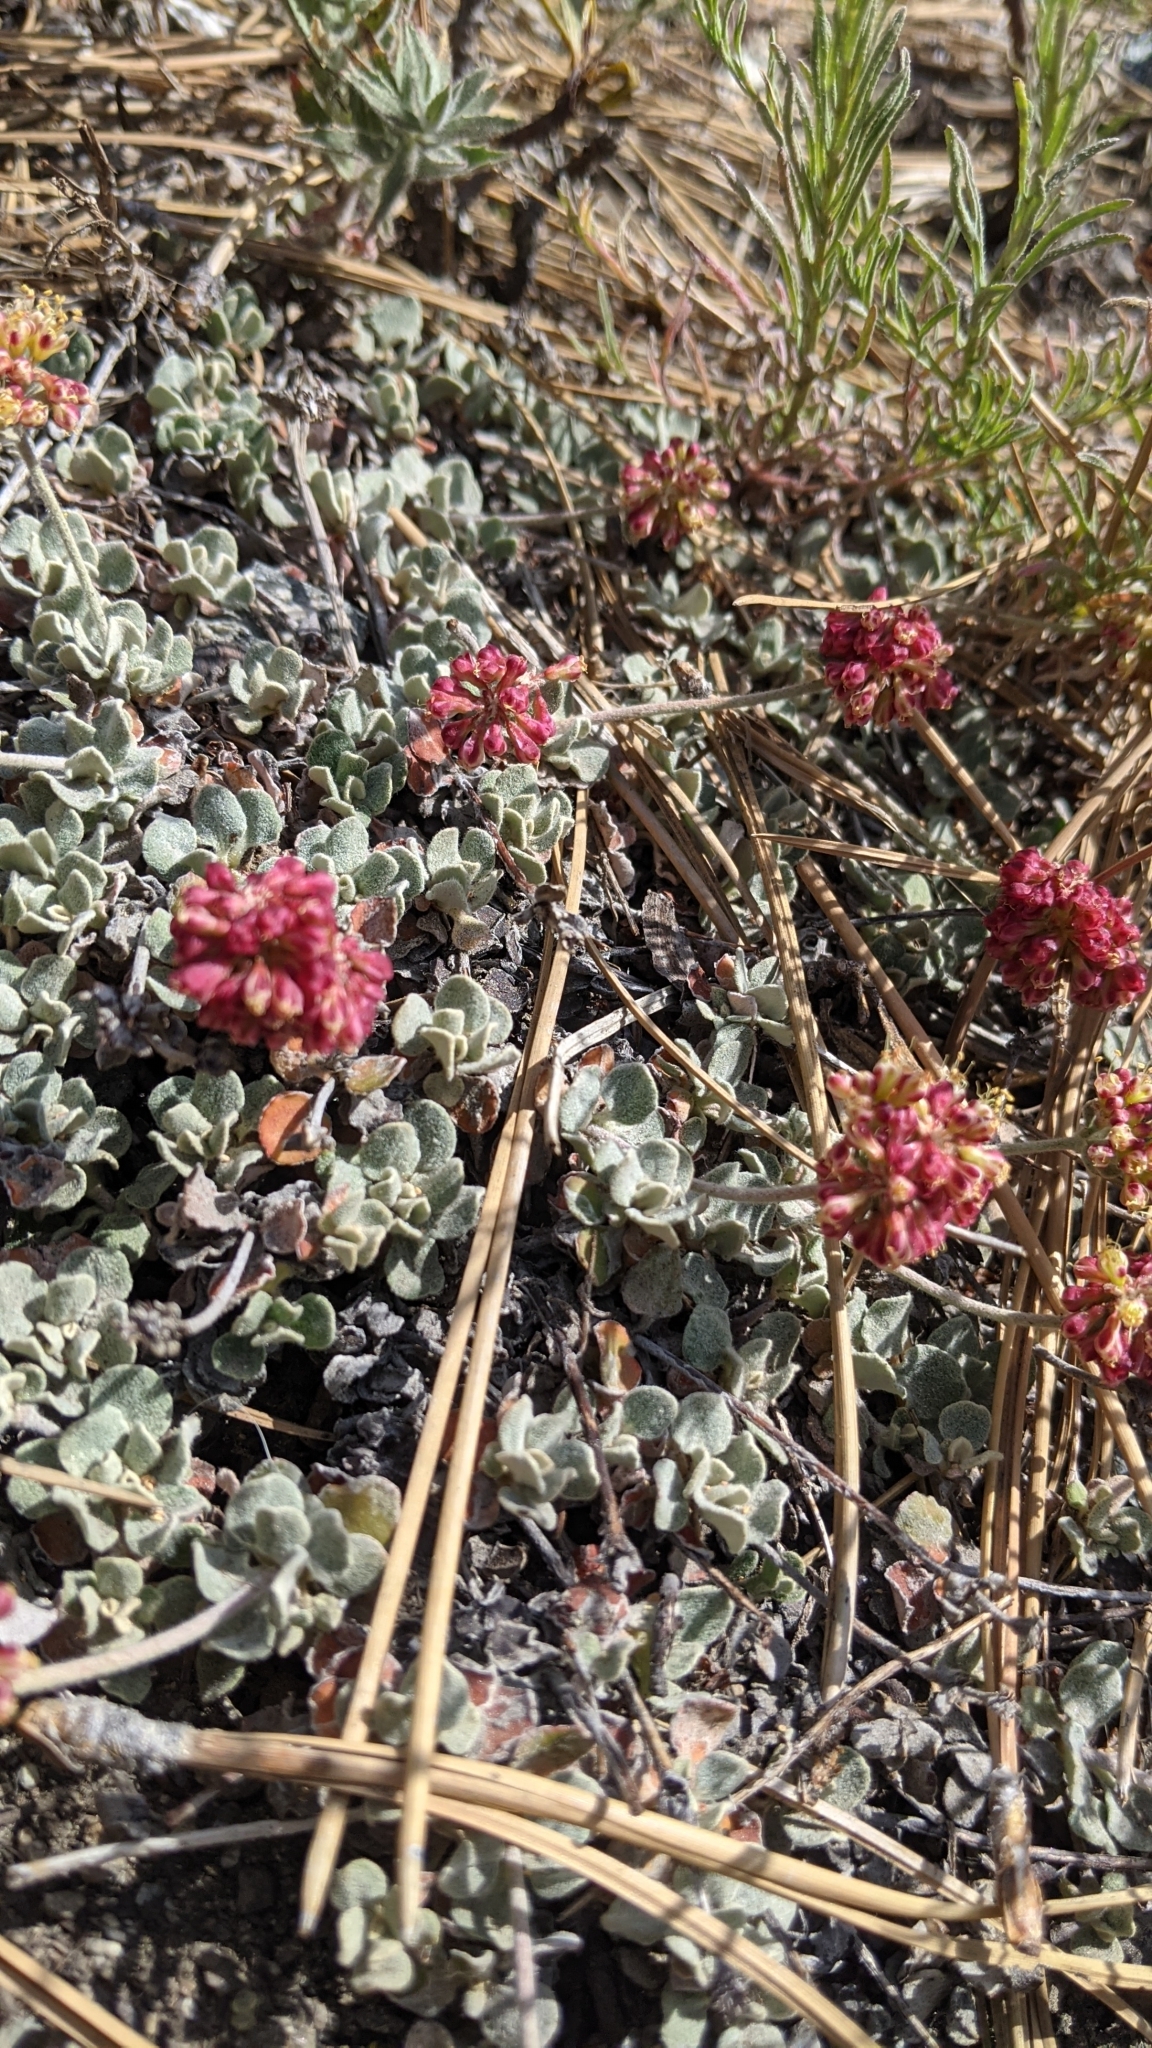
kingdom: Plantae
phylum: Tracheophyta
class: Magnoliopsida
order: Caryophyllales
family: Polygonaceae
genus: Eriogonum
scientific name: Eriogonum umbellatum
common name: Sulfur-buckwheat
